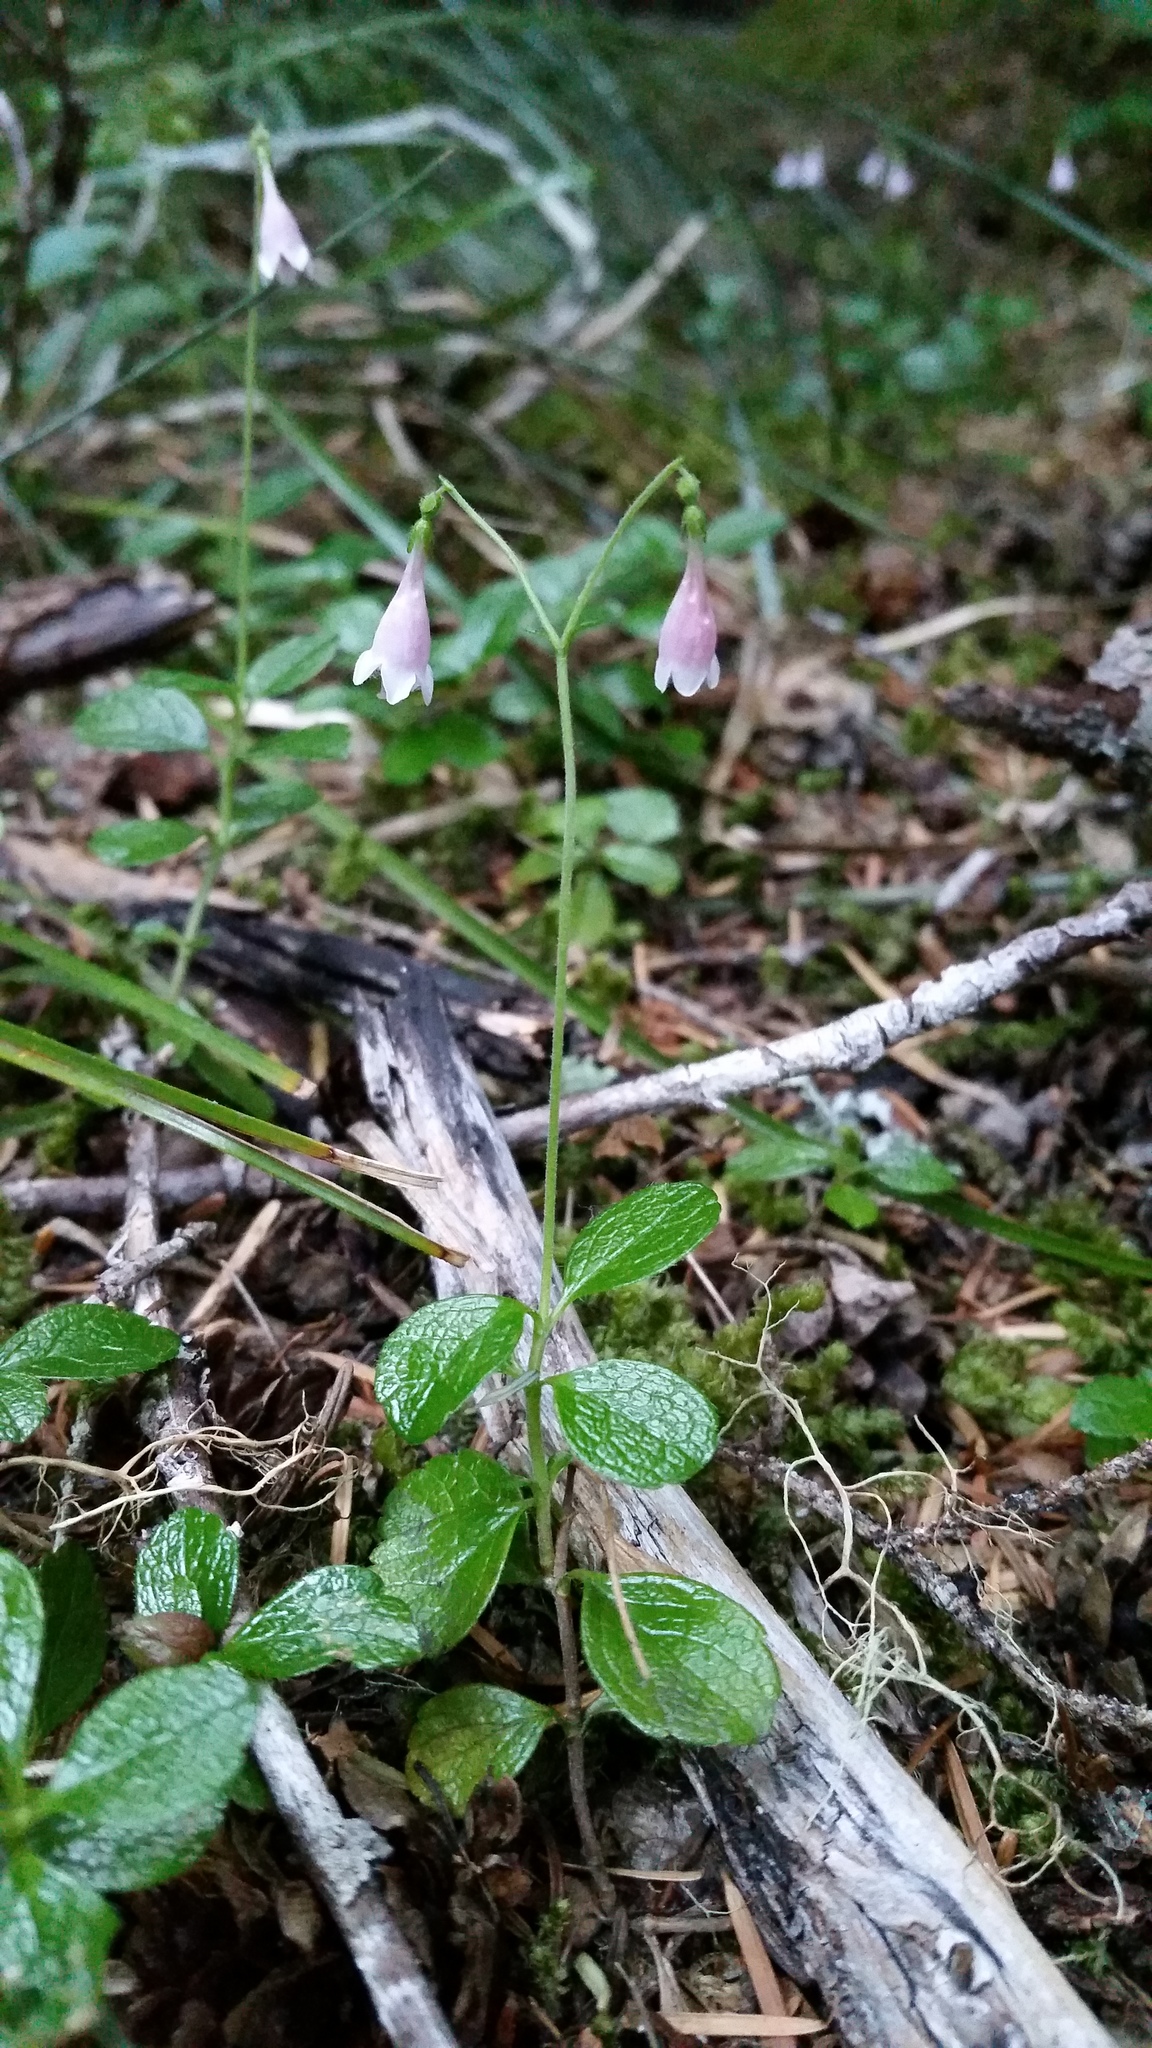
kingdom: Plantae
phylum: Tracheophyta
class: Magnoliopsida
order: Dipsacales
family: Caprifoliaceae
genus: Linnaea
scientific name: Linnaea borealis
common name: Twinflower
